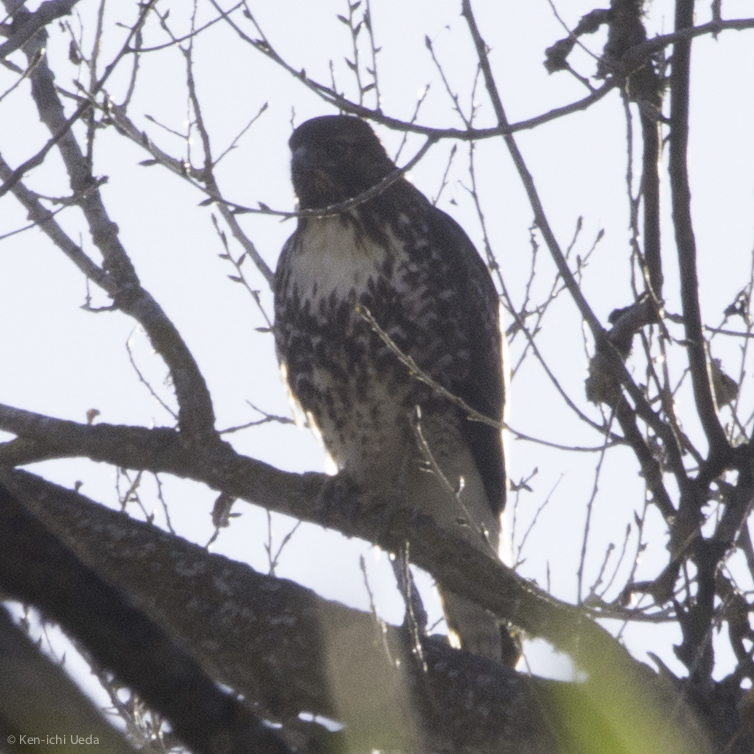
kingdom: Animalia
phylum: Chordata
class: Aves
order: Accipitriformes
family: Accipitridae
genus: Buteo
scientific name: Buteo jamaicensis
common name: Red-tailed hawk
